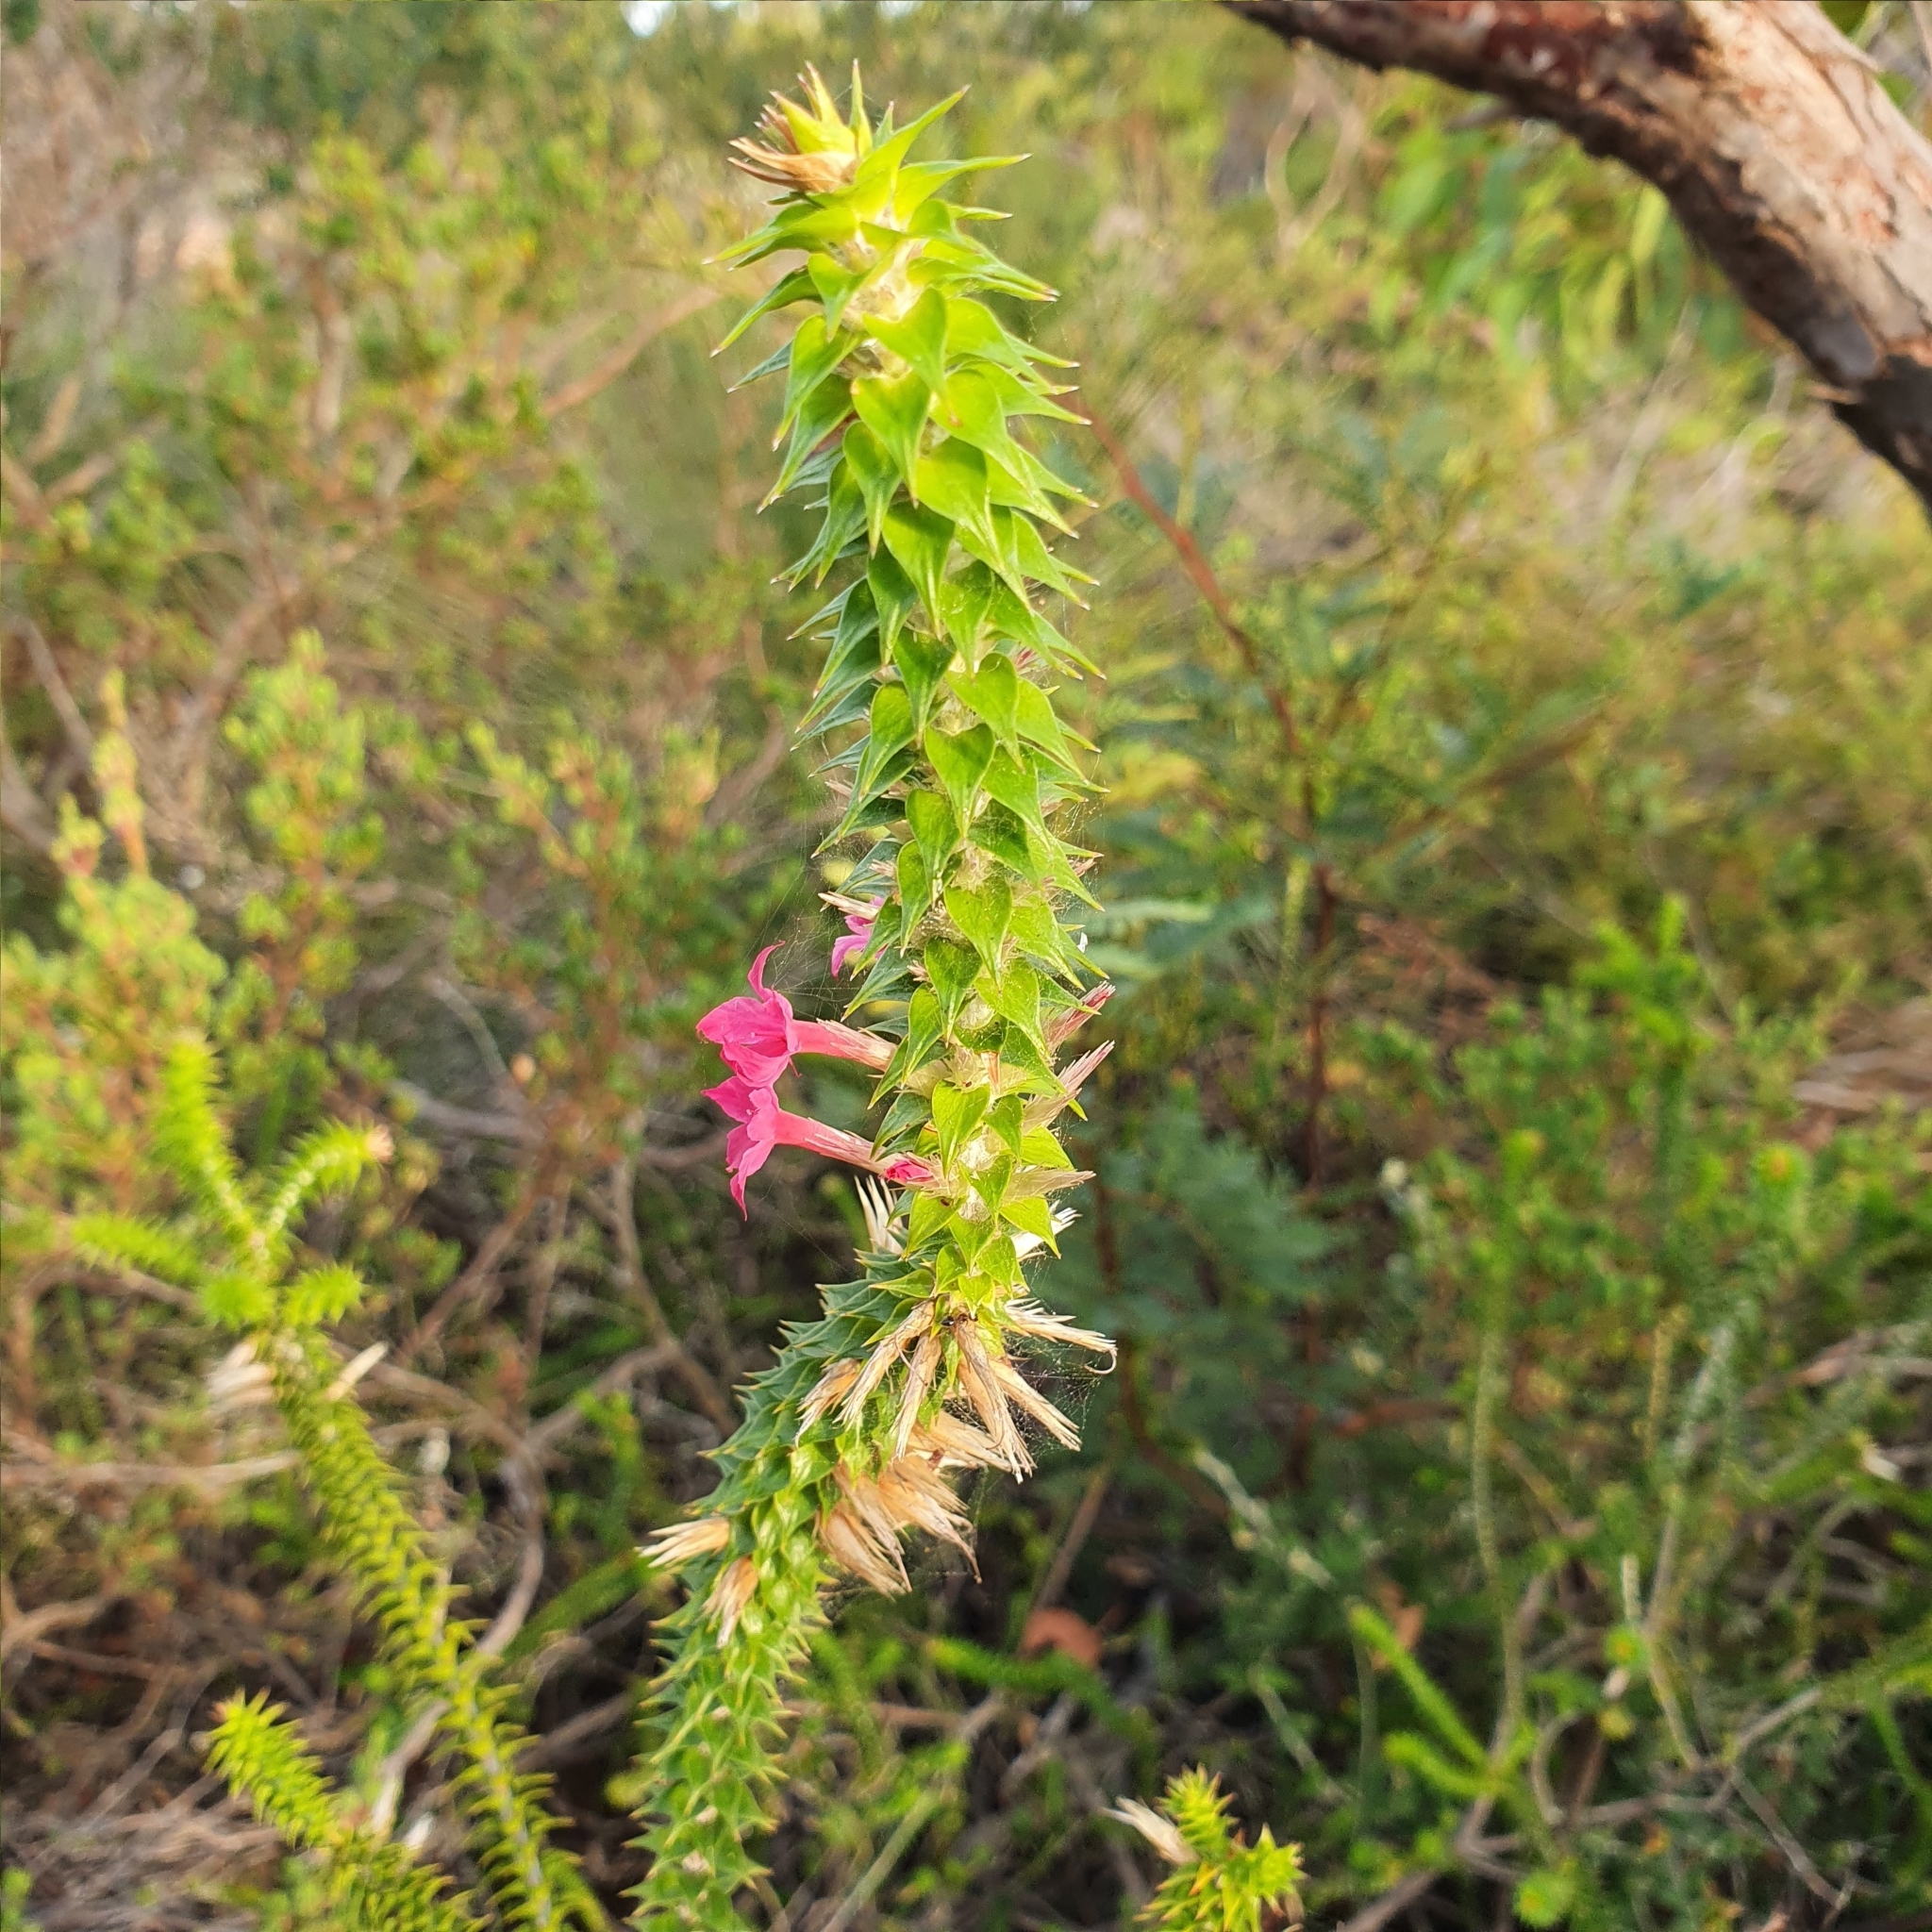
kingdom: Plantae
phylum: Tracheophyta
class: Magnoliopsida
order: Ericales
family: Ericaceae
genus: Woollsia
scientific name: Woollsia pungens
